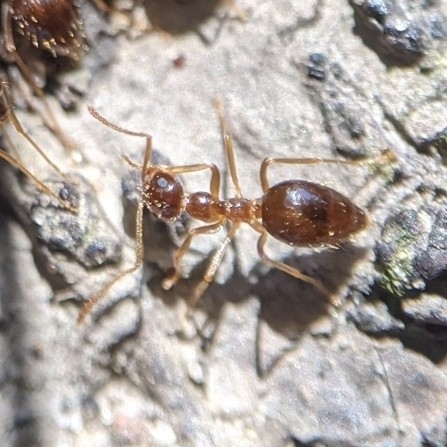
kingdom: Animalia
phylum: Arthropoda
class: Insecta
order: Hymenoptera
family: Formicidae
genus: Prenolepis
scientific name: Prenolepis imparis
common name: Small honey ant
